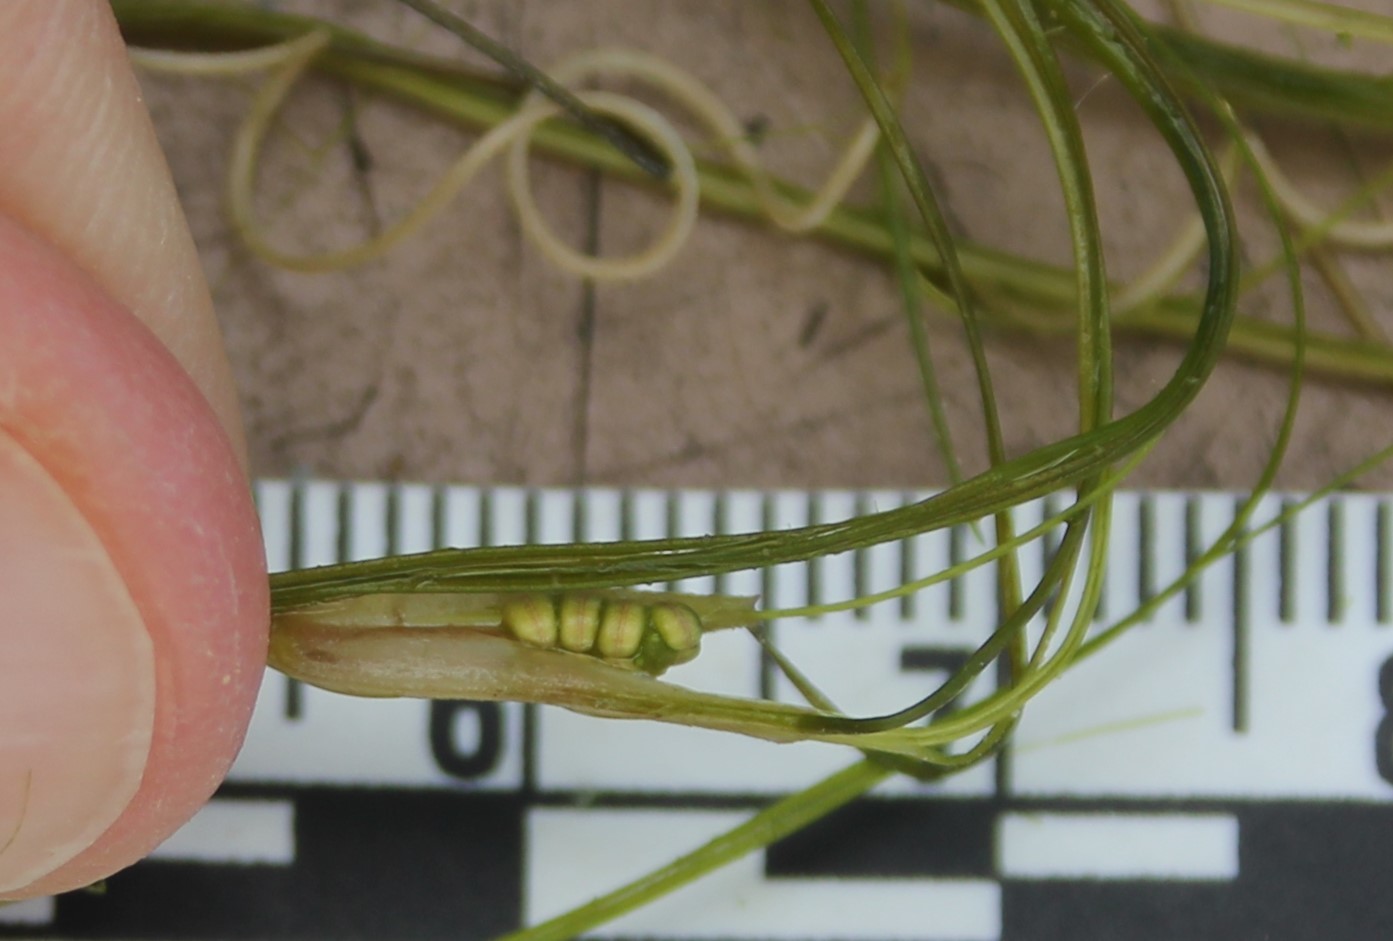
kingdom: Plantae
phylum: Tracheophyta
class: Liliopsida
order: Alismatales
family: Ruppiaceae
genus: Ruppia
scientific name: Ruppia cirrhosa
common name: Spiral tasselweed
